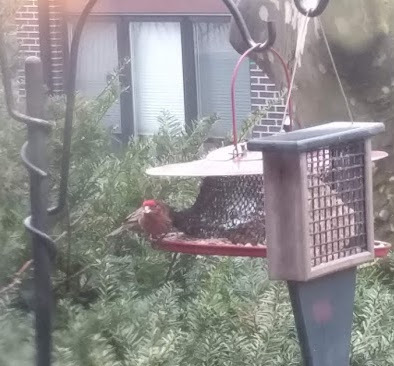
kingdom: Animalia
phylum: Chordata
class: Aves
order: Passeriformes
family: Fringillidae
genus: Haemorhous
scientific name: Haemorhous mexicanus
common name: House finch
